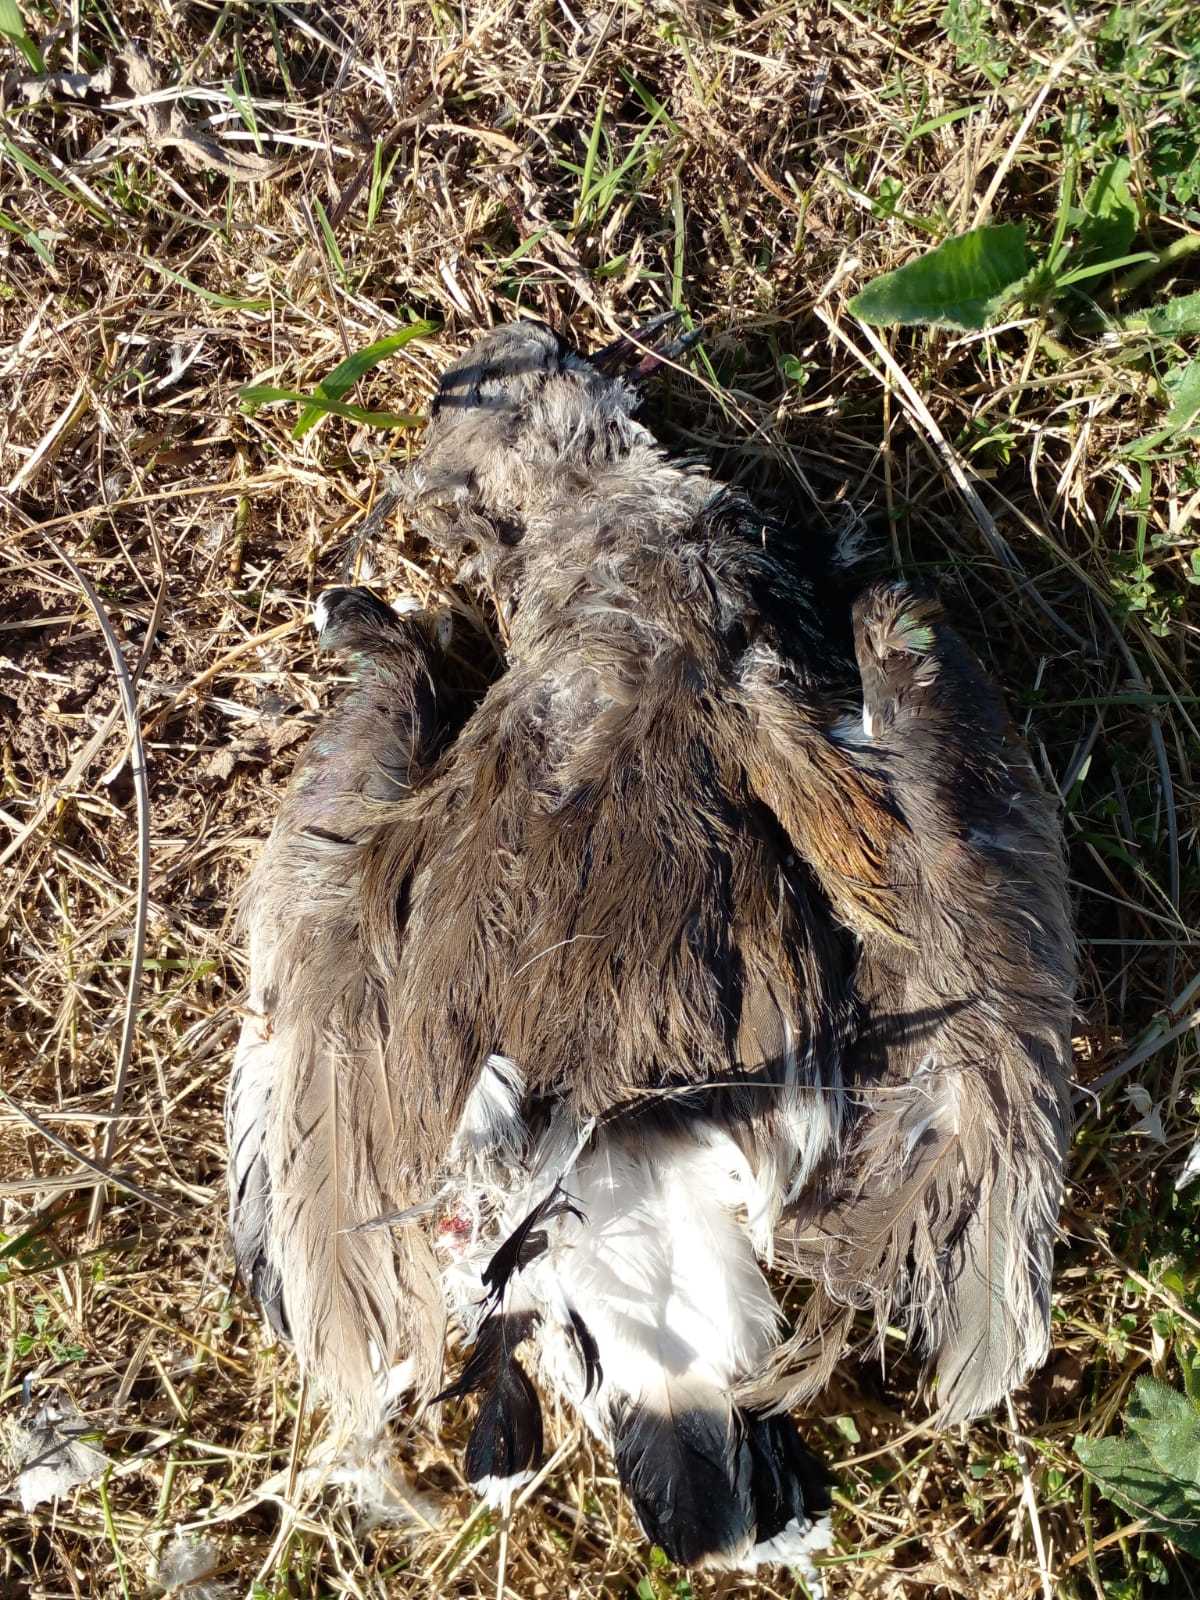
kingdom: Animalia
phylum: Chordata
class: Aves
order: Charadriiformes
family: Charadriidae
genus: Vanellus
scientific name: Vanellus chilensis
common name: Southern lapwing
